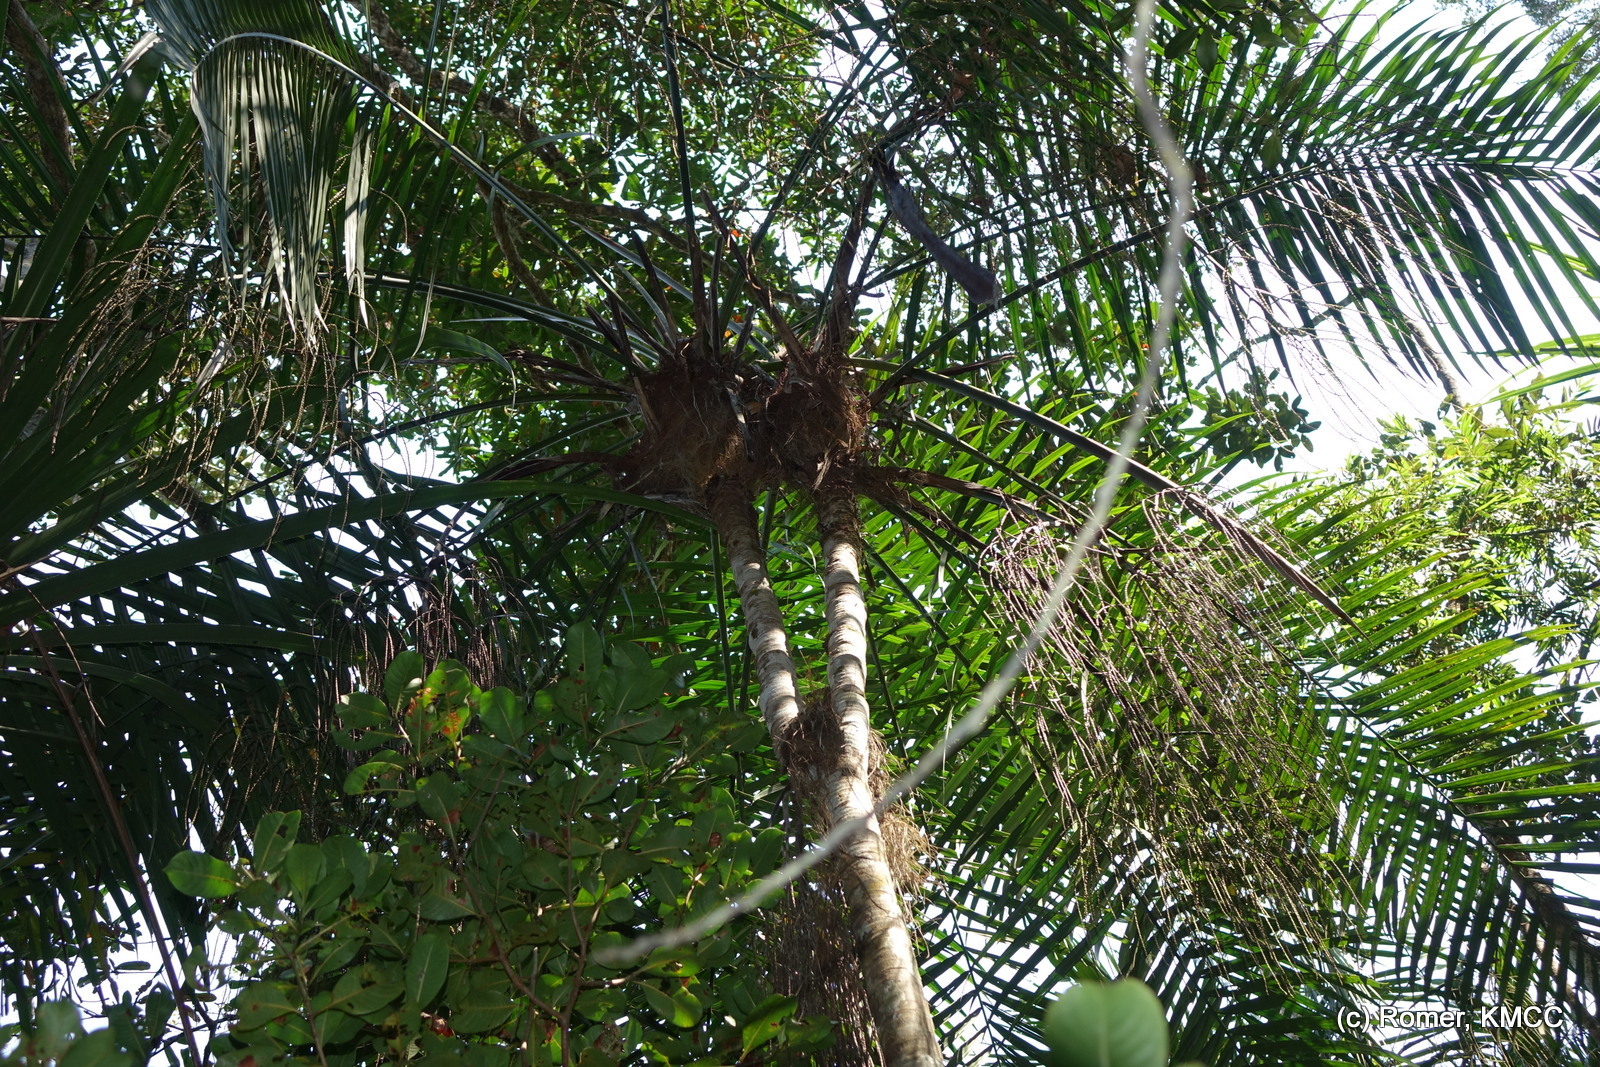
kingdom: Plantae
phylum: Tracheophyta
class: Liliopsida
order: Arecales
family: Arecaceae
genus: Dypsis
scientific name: Dypsis utilis
